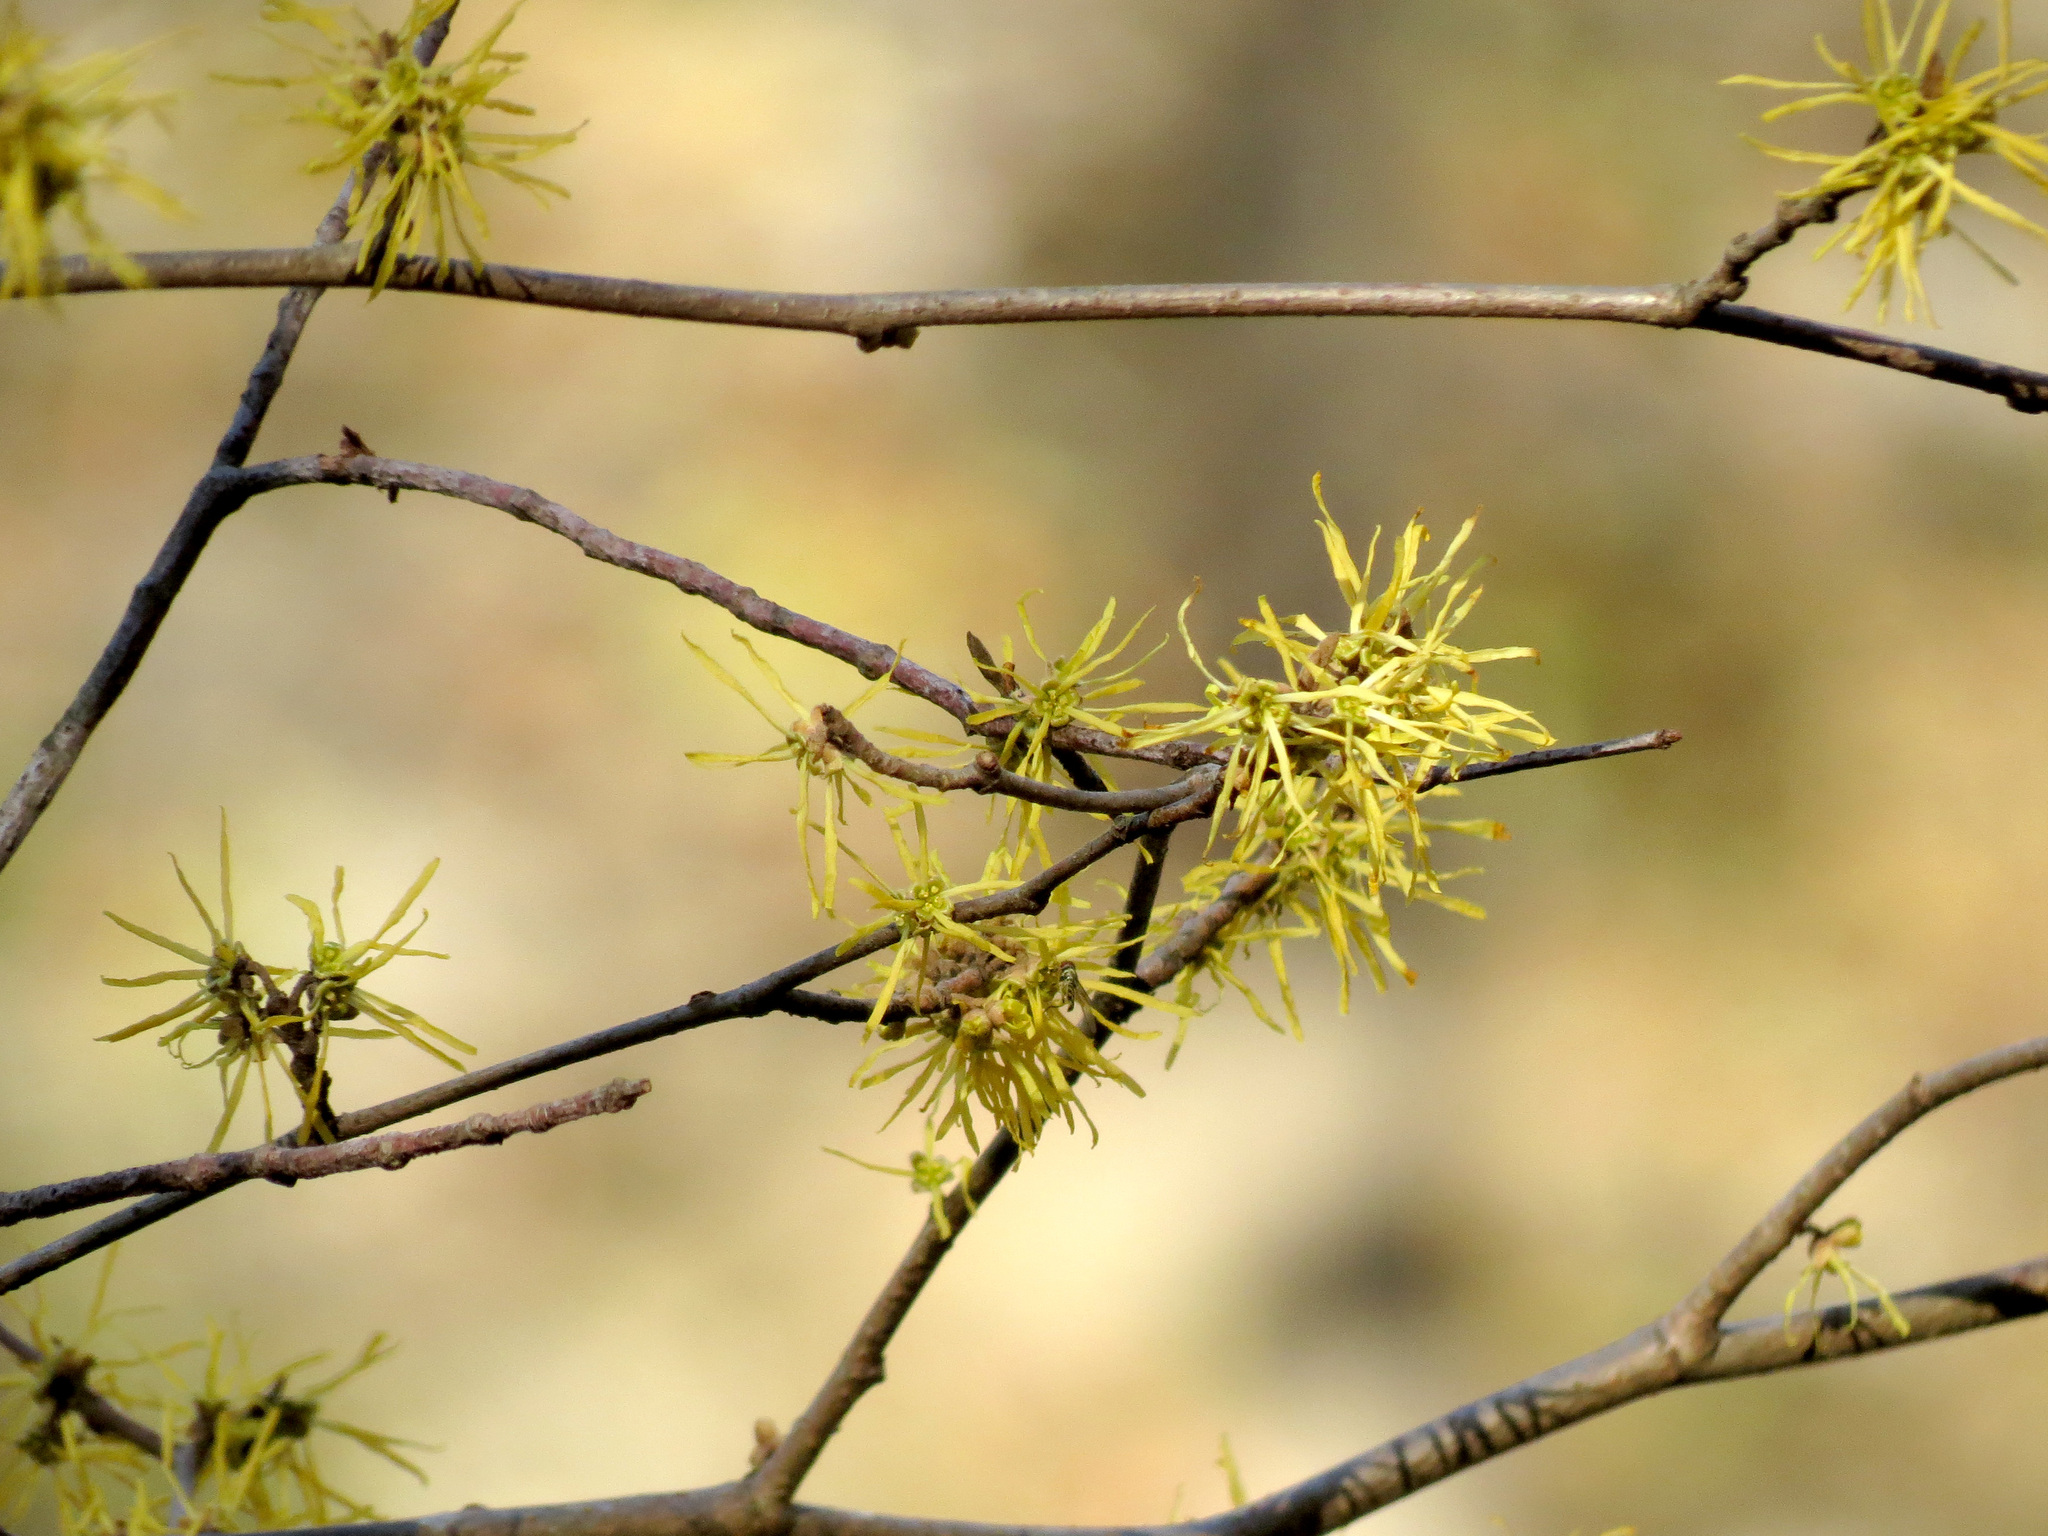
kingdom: Plantae
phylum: Tracheophyta
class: Magnoliopsida
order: Saxifragales
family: Hamamelidaceae
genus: Hamamelis
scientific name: Hamamelis virginiana
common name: Witch-hazel
